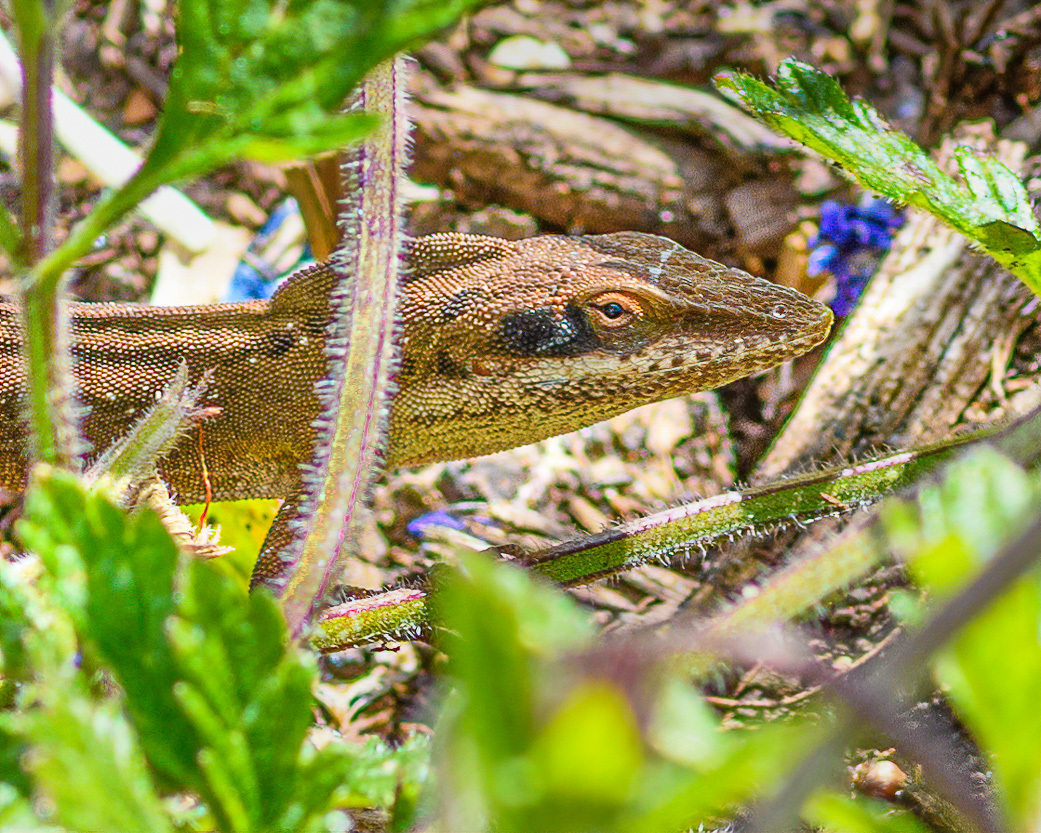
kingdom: Animalia
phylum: Chordata
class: Squamata
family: Dactyloidae
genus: Anolis
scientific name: Anolis carolinensis
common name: Green anole
